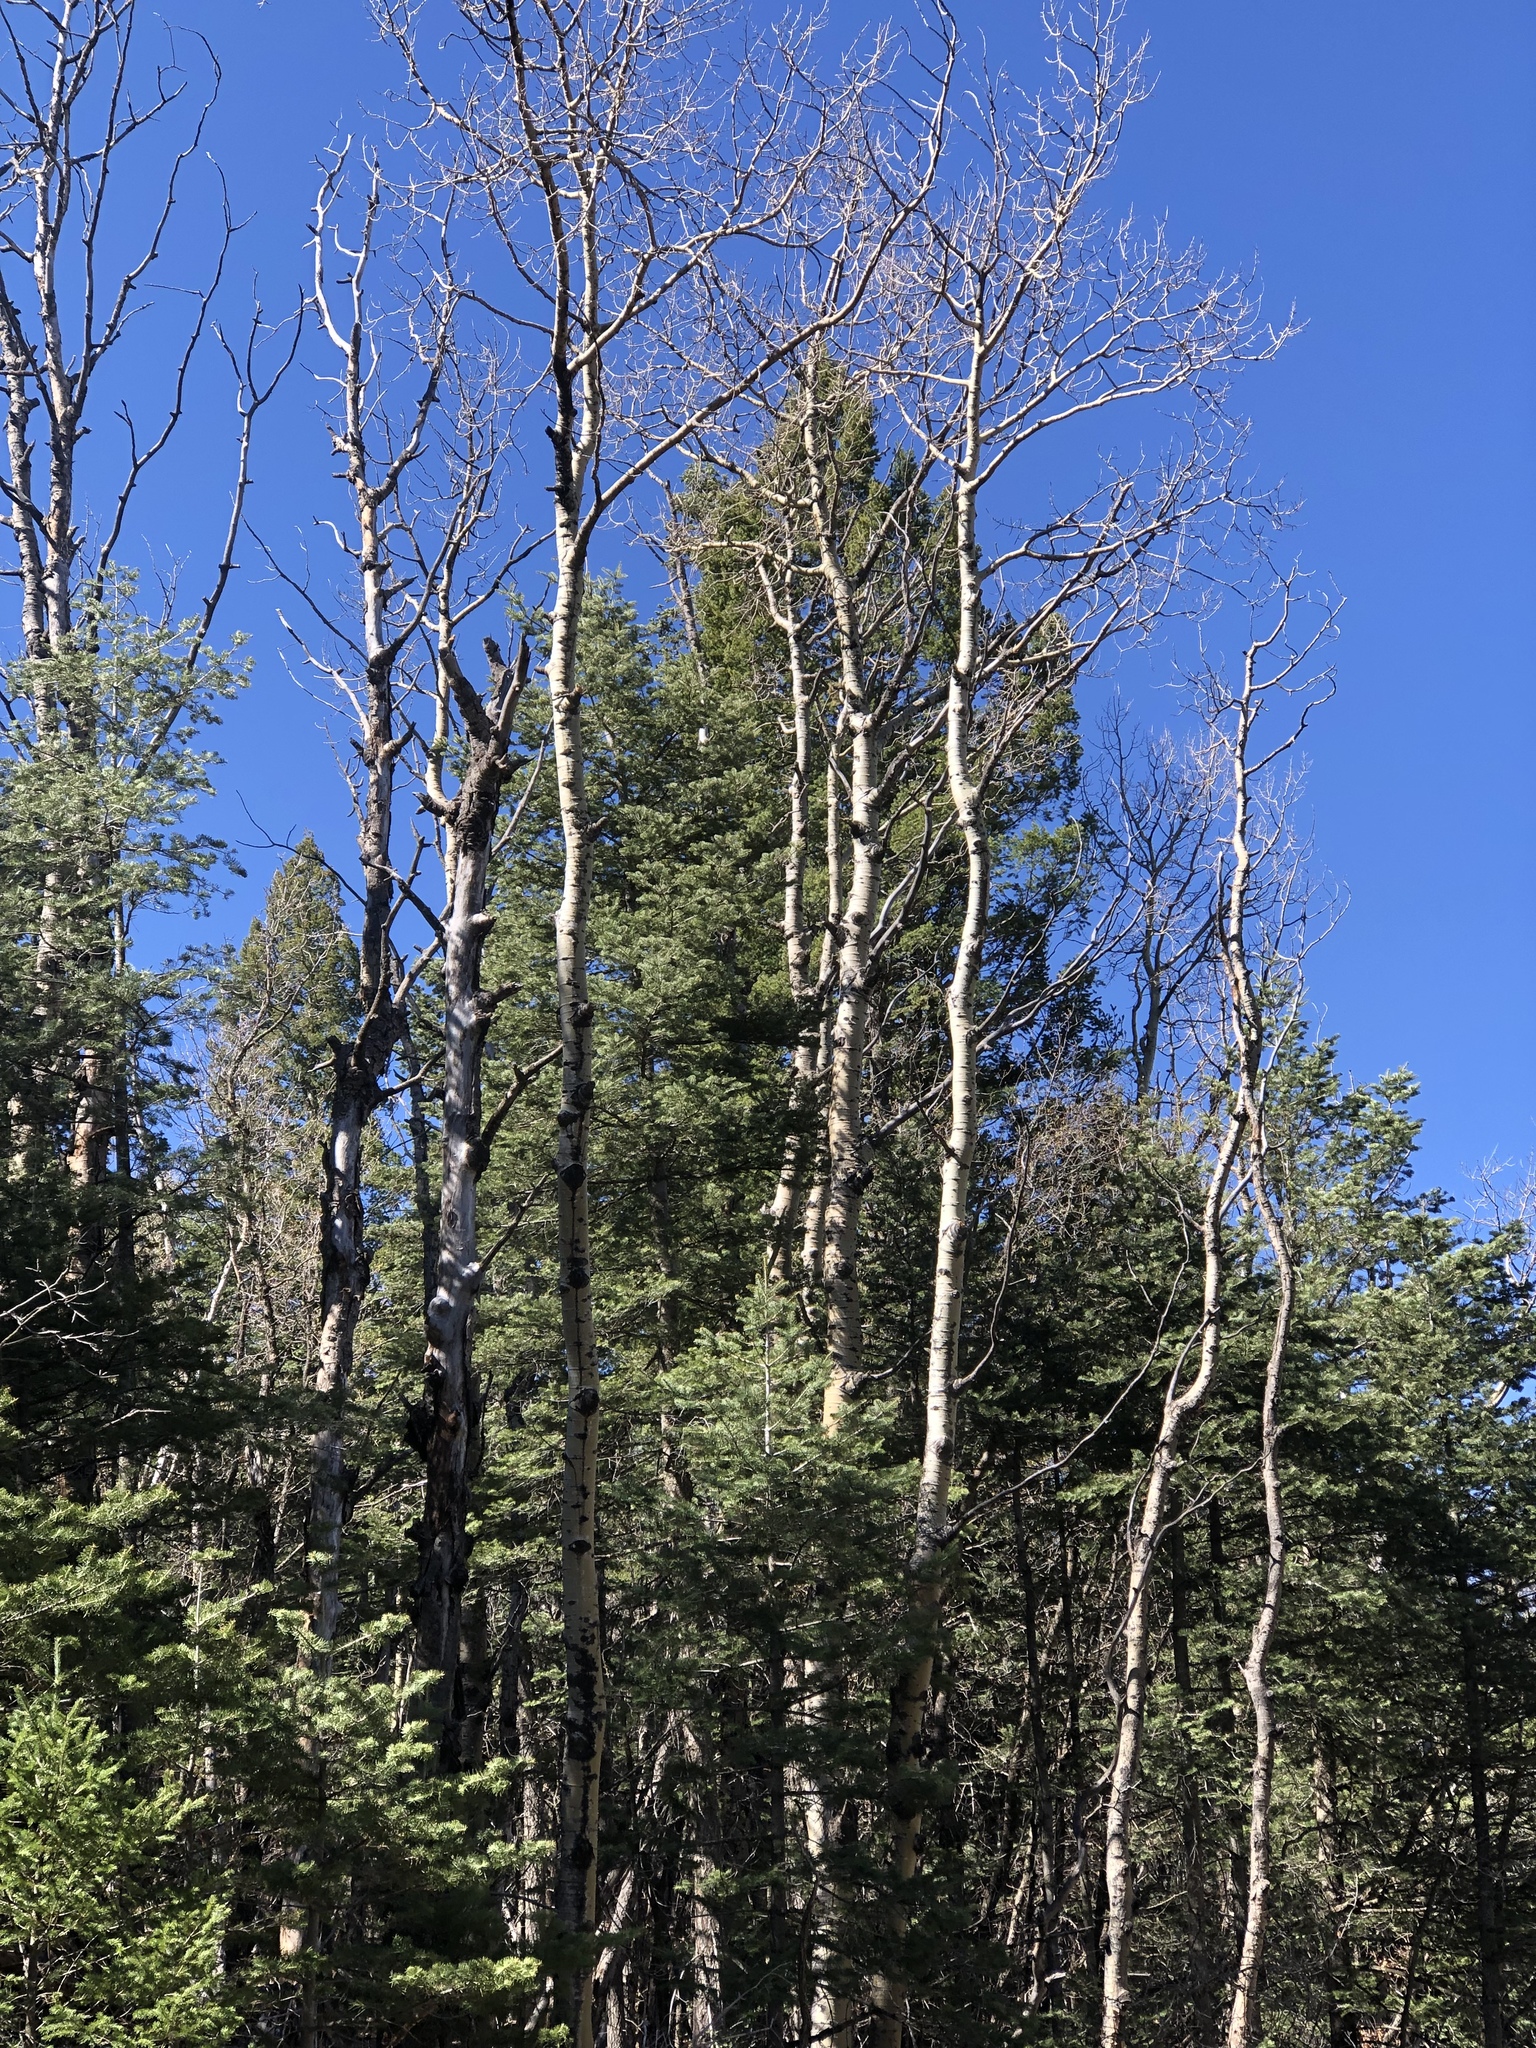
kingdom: Plantae
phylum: Tracheophyta
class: Magnoliopsida
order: Malpighiales
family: Salicaceae
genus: Populus
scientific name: Populus tremuloides
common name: Quaking aspen
